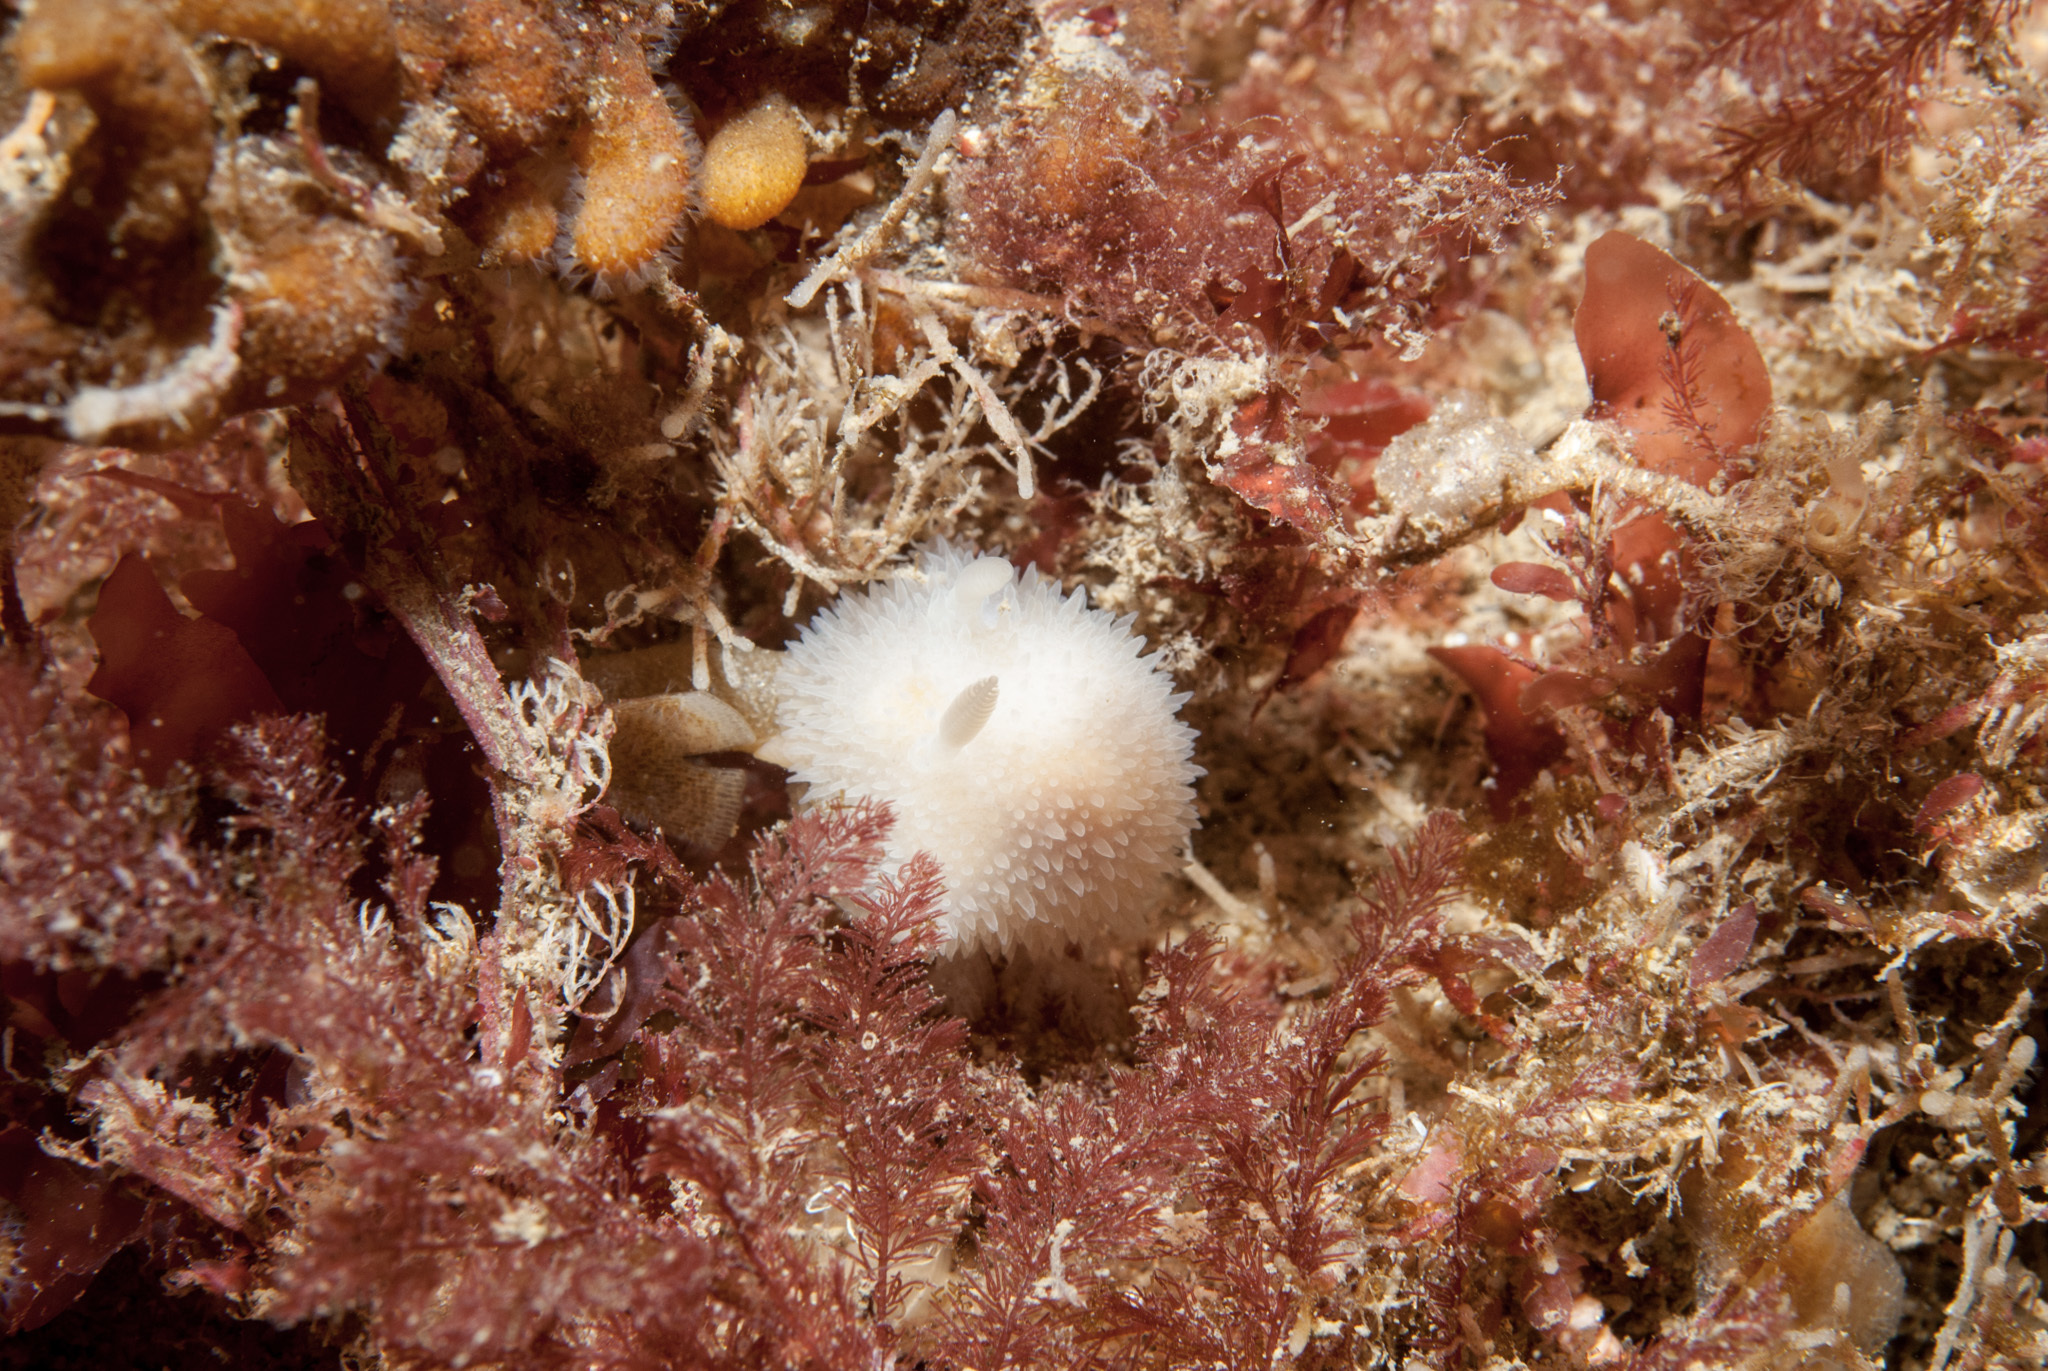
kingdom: Animalia
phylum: Mollusca
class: Gastropoda
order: Nudibranchia
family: Onchidorididae
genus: Acanthodoris
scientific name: Acanthodoris pilosa
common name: Hairy spiny doris
